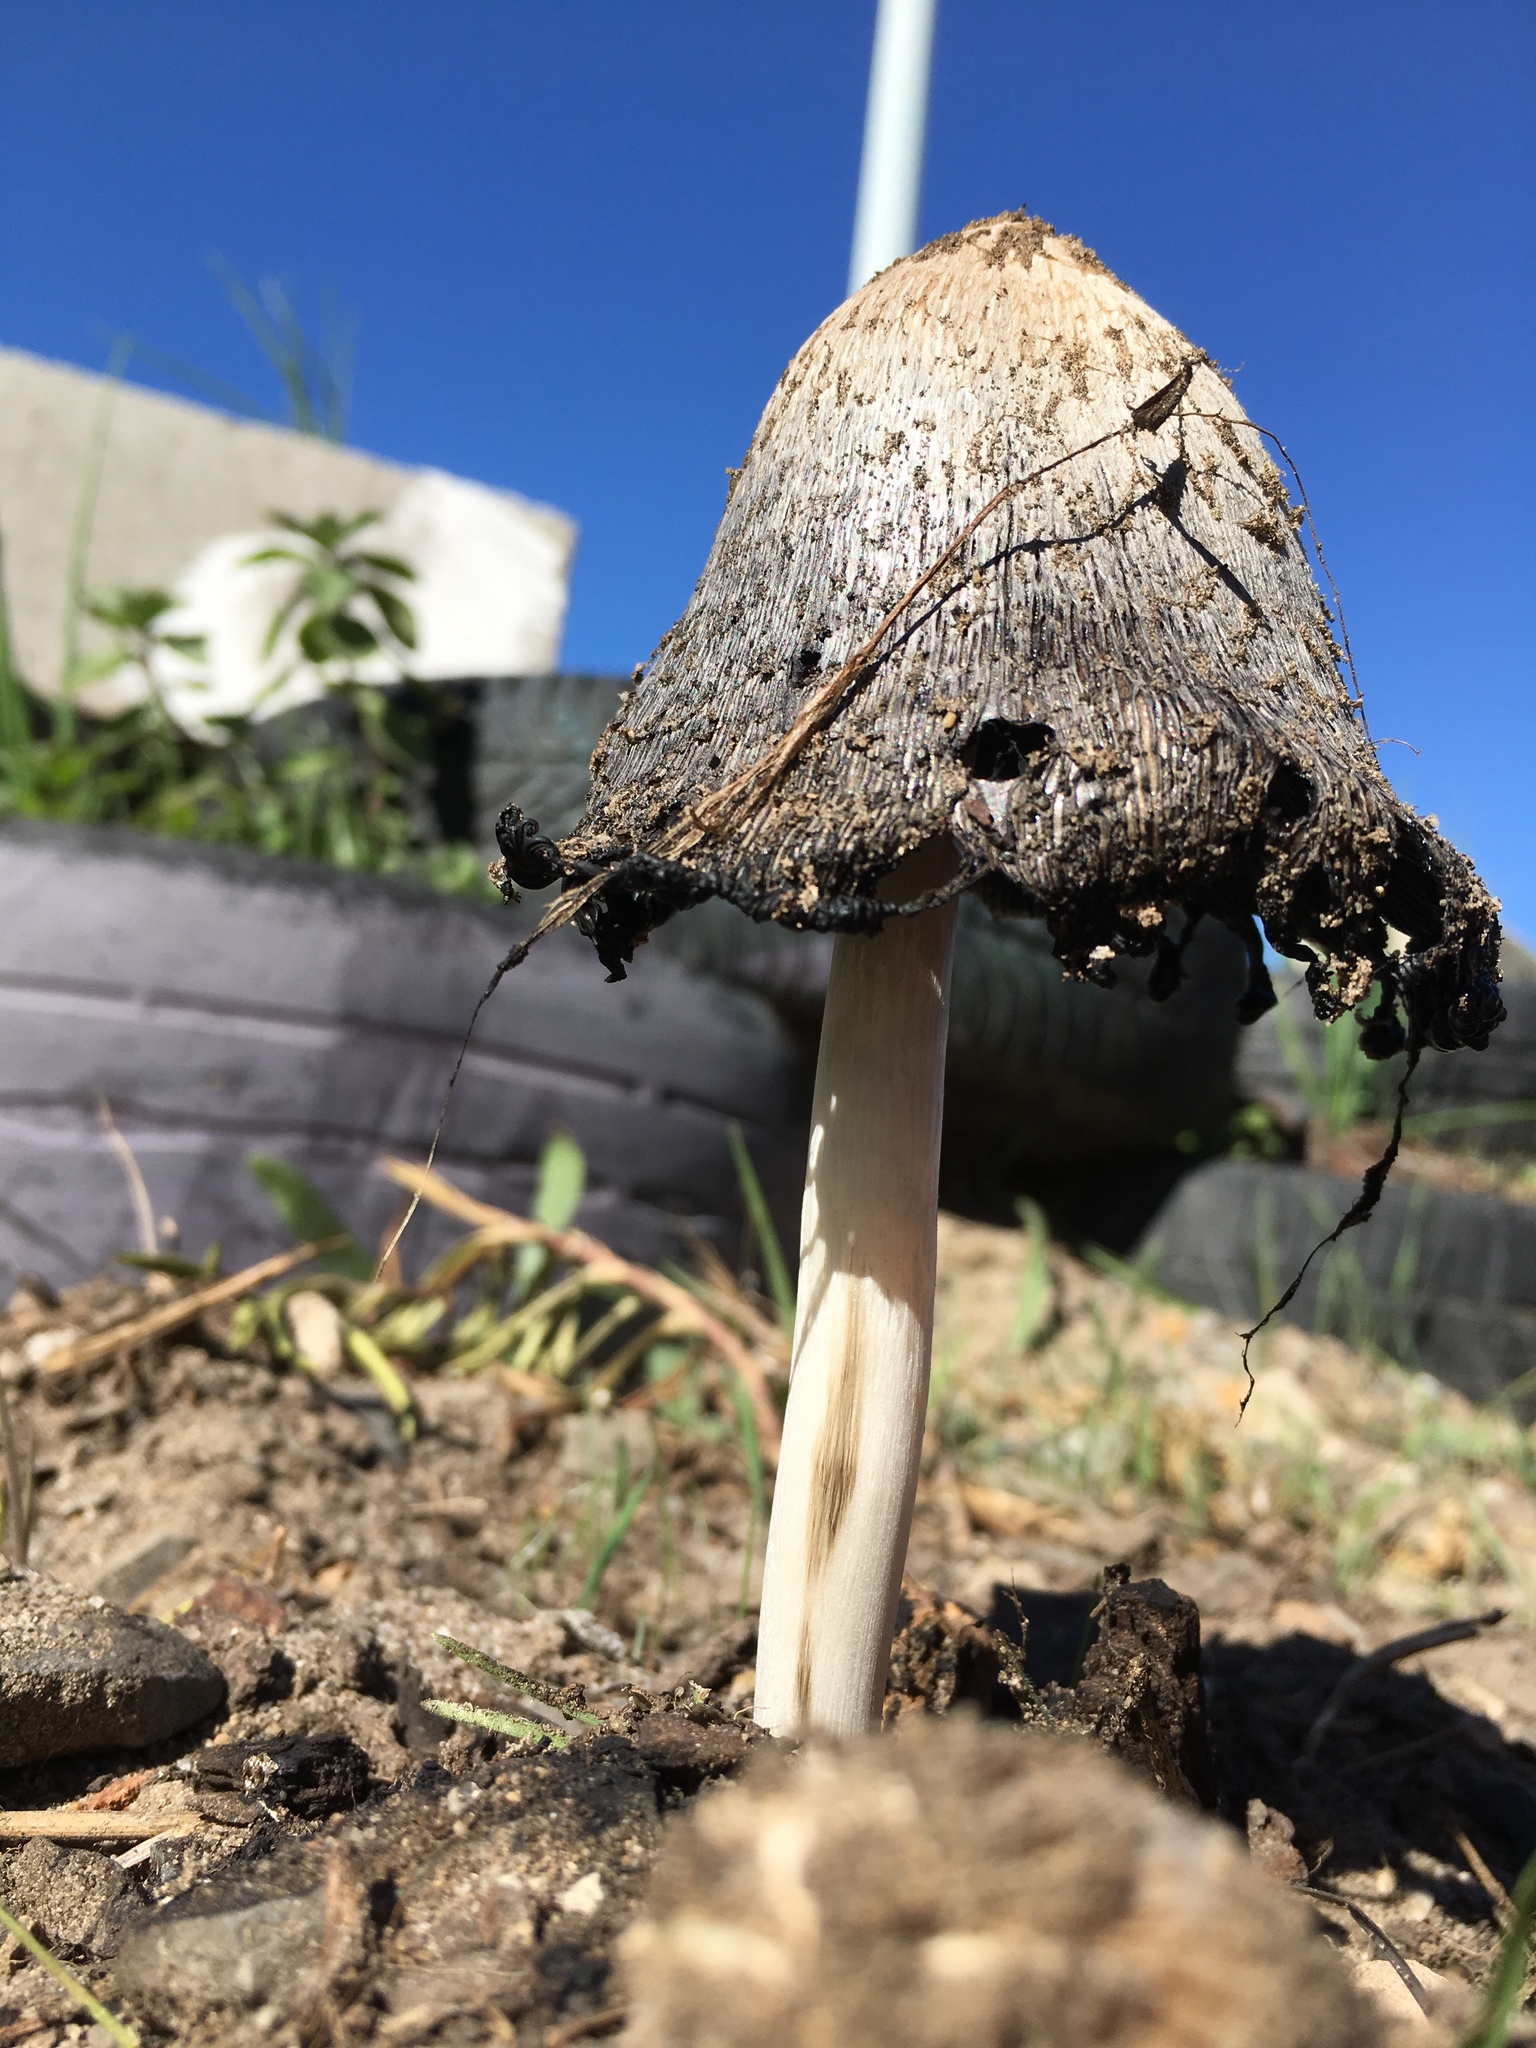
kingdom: Fungi
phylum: Basidiomycota
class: Agaricomycetes
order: Agaricales
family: Agaricaceae
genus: Coprinus
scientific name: Coprinus comatus
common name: Lawyer's wig
